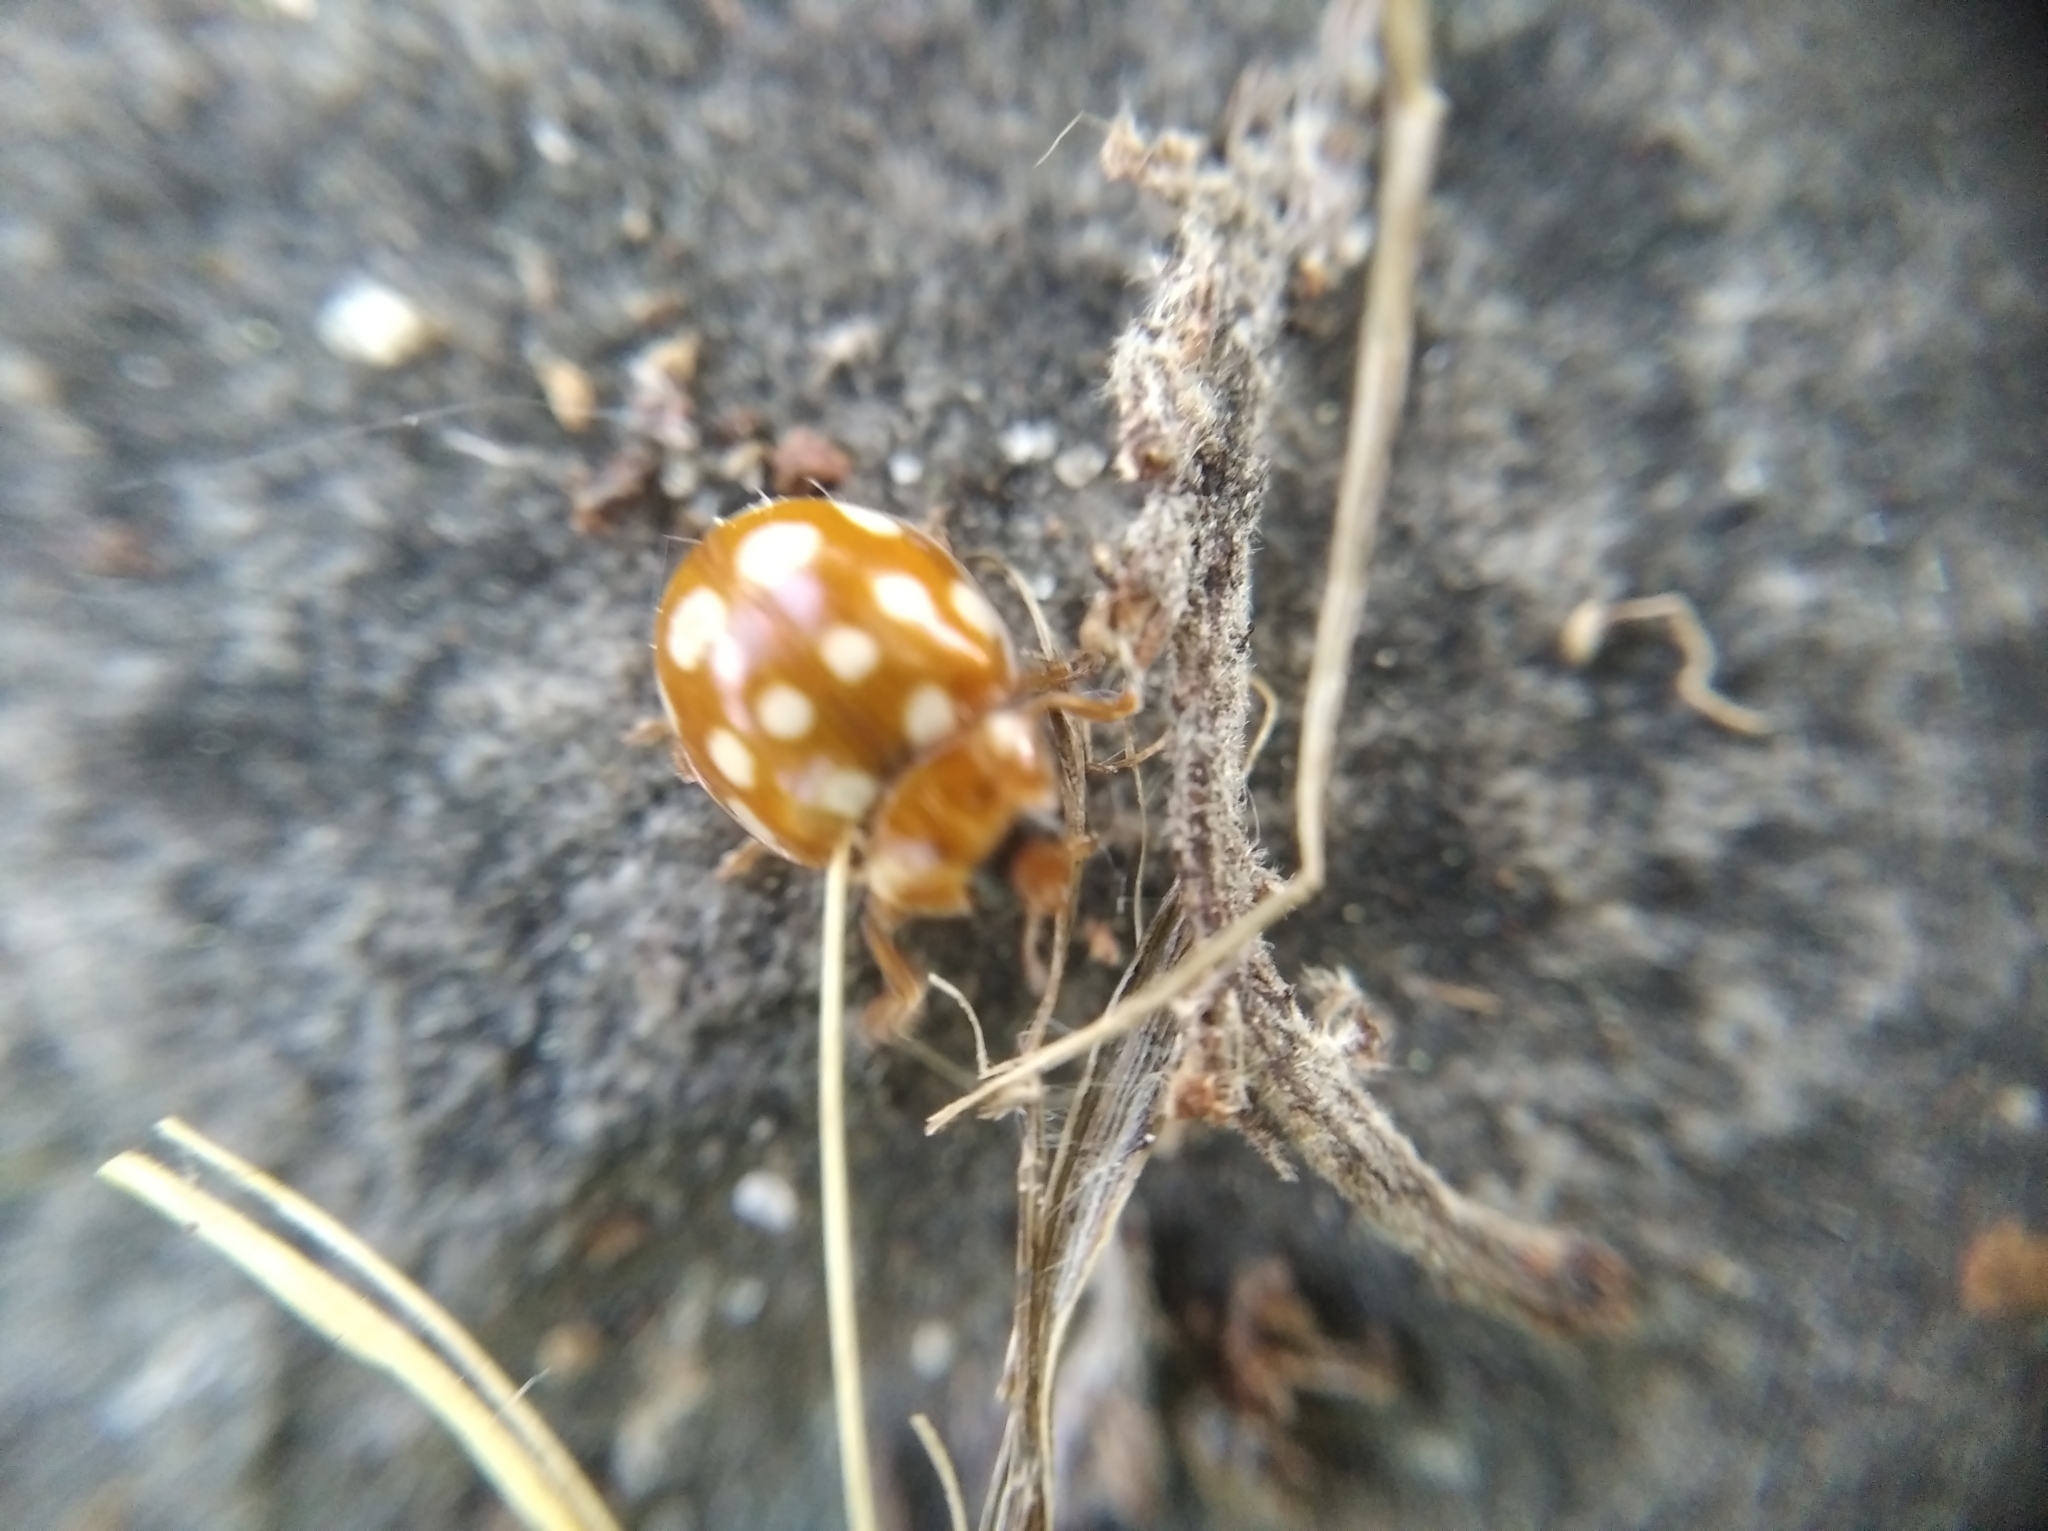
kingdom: Animalia
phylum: Arthropoda
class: Insecta
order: Coleoptera
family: Coccinellidae
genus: Calvia
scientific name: Calvia quatuordecimguttata
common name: Cream-spot ladybird
